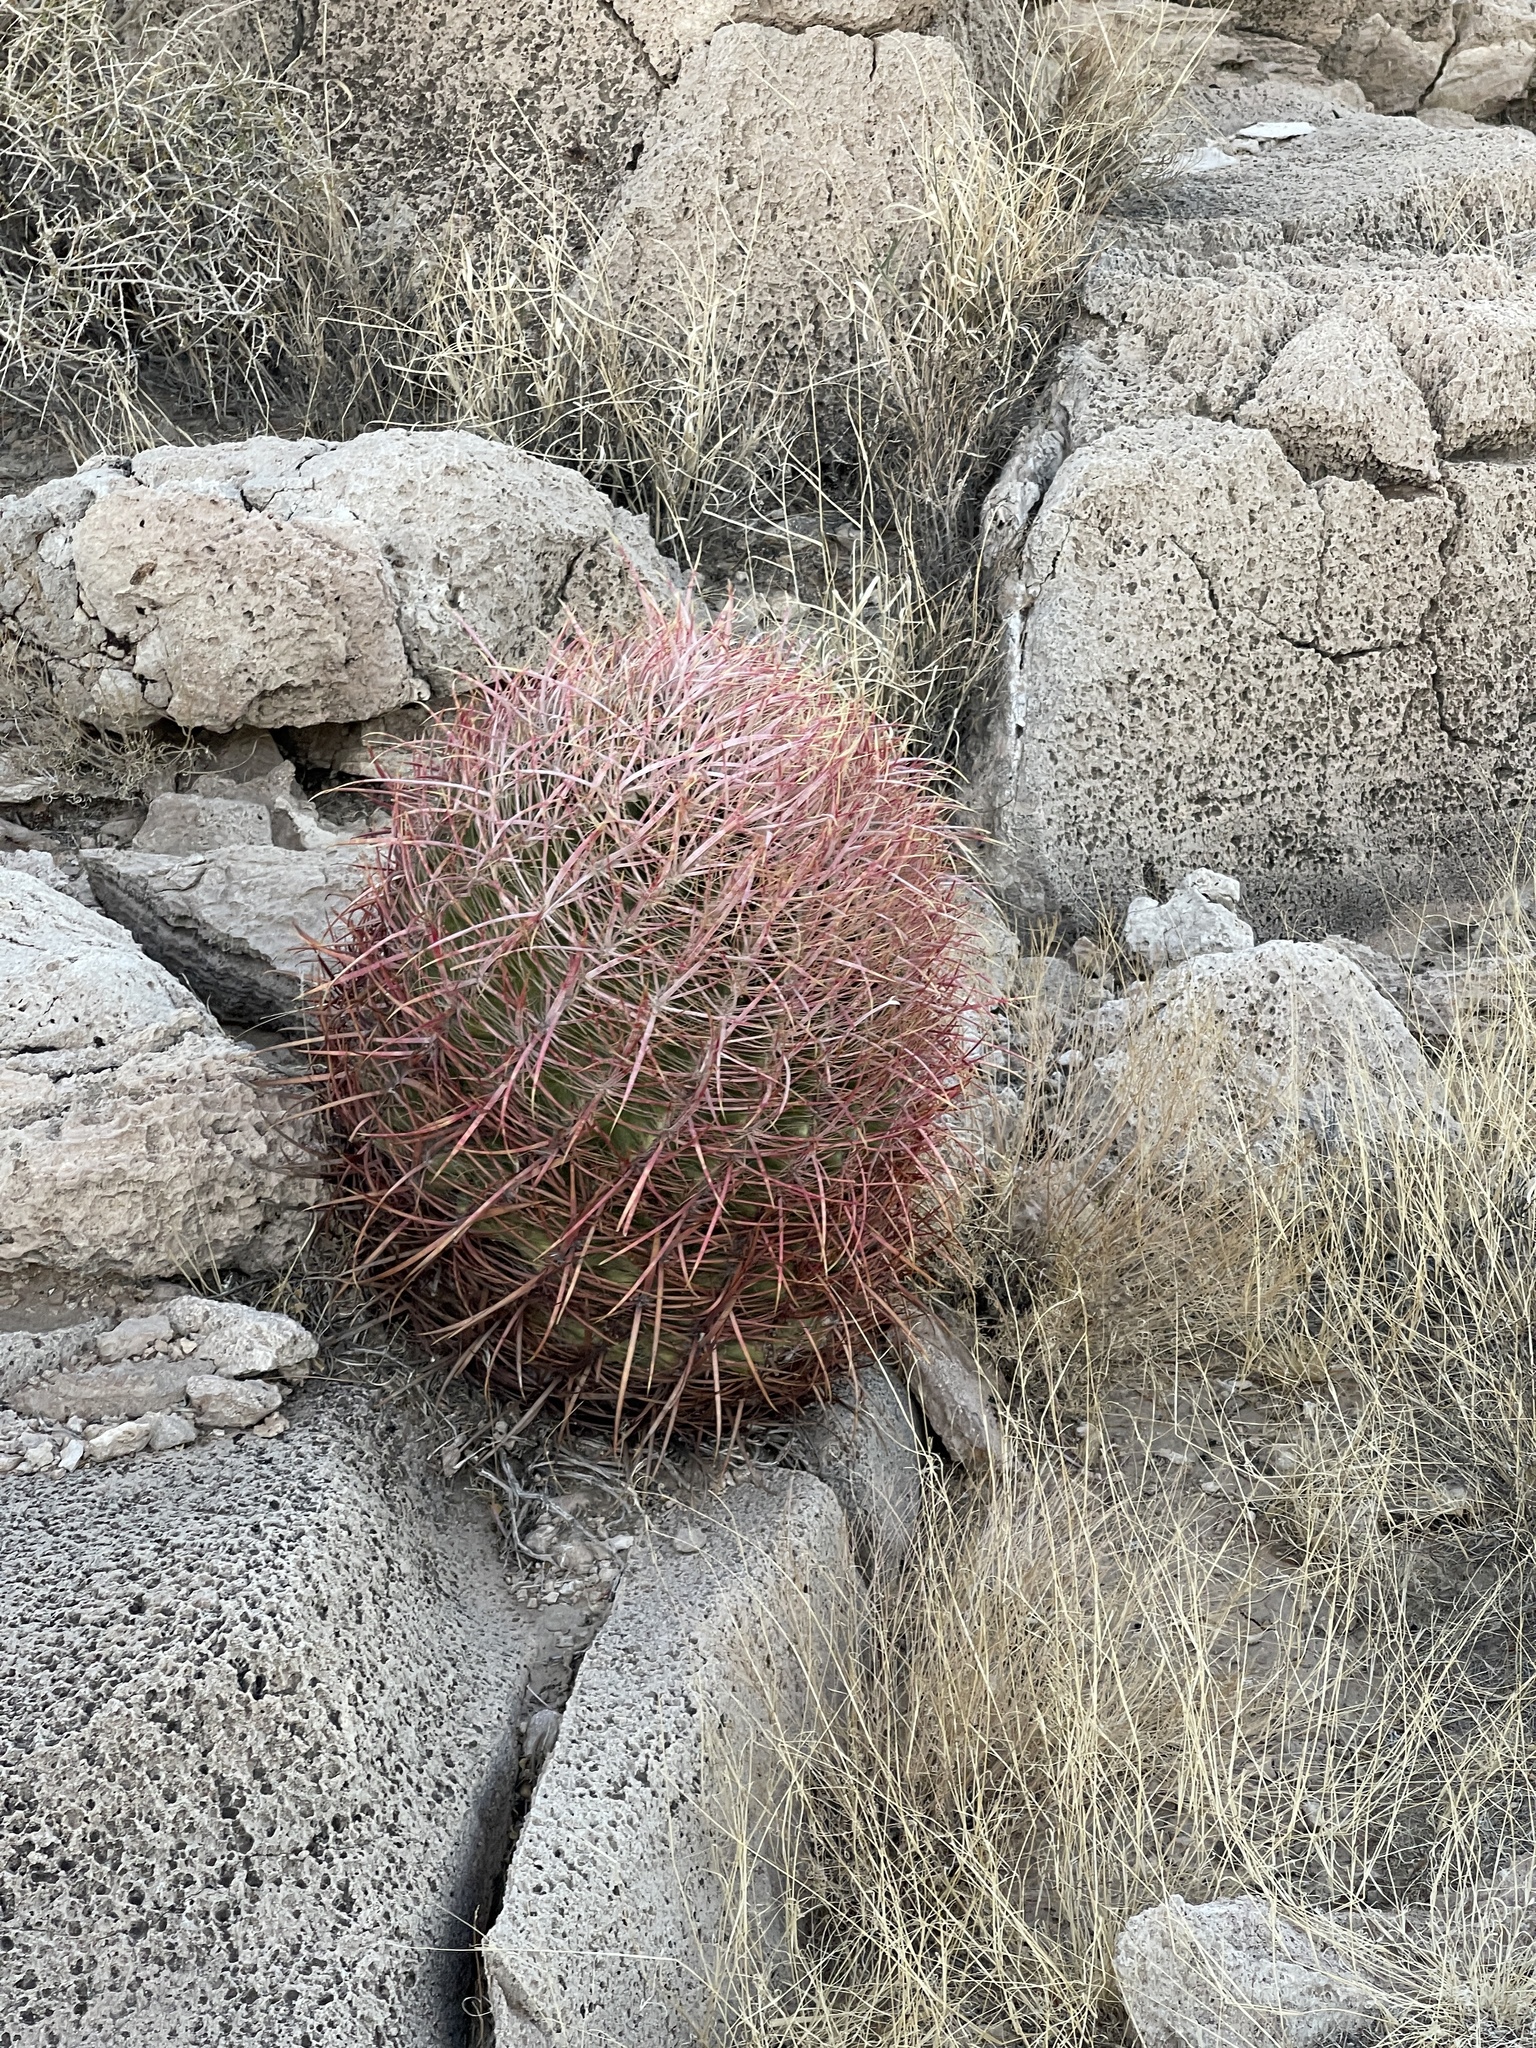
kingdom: Plantae
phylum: Tracheophyta
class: Magnoliopsida
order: Caryophyllales
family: Cactaceae
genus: Ferocactus
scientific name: Ferocactus cylindraceus
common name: California barrel cactus
